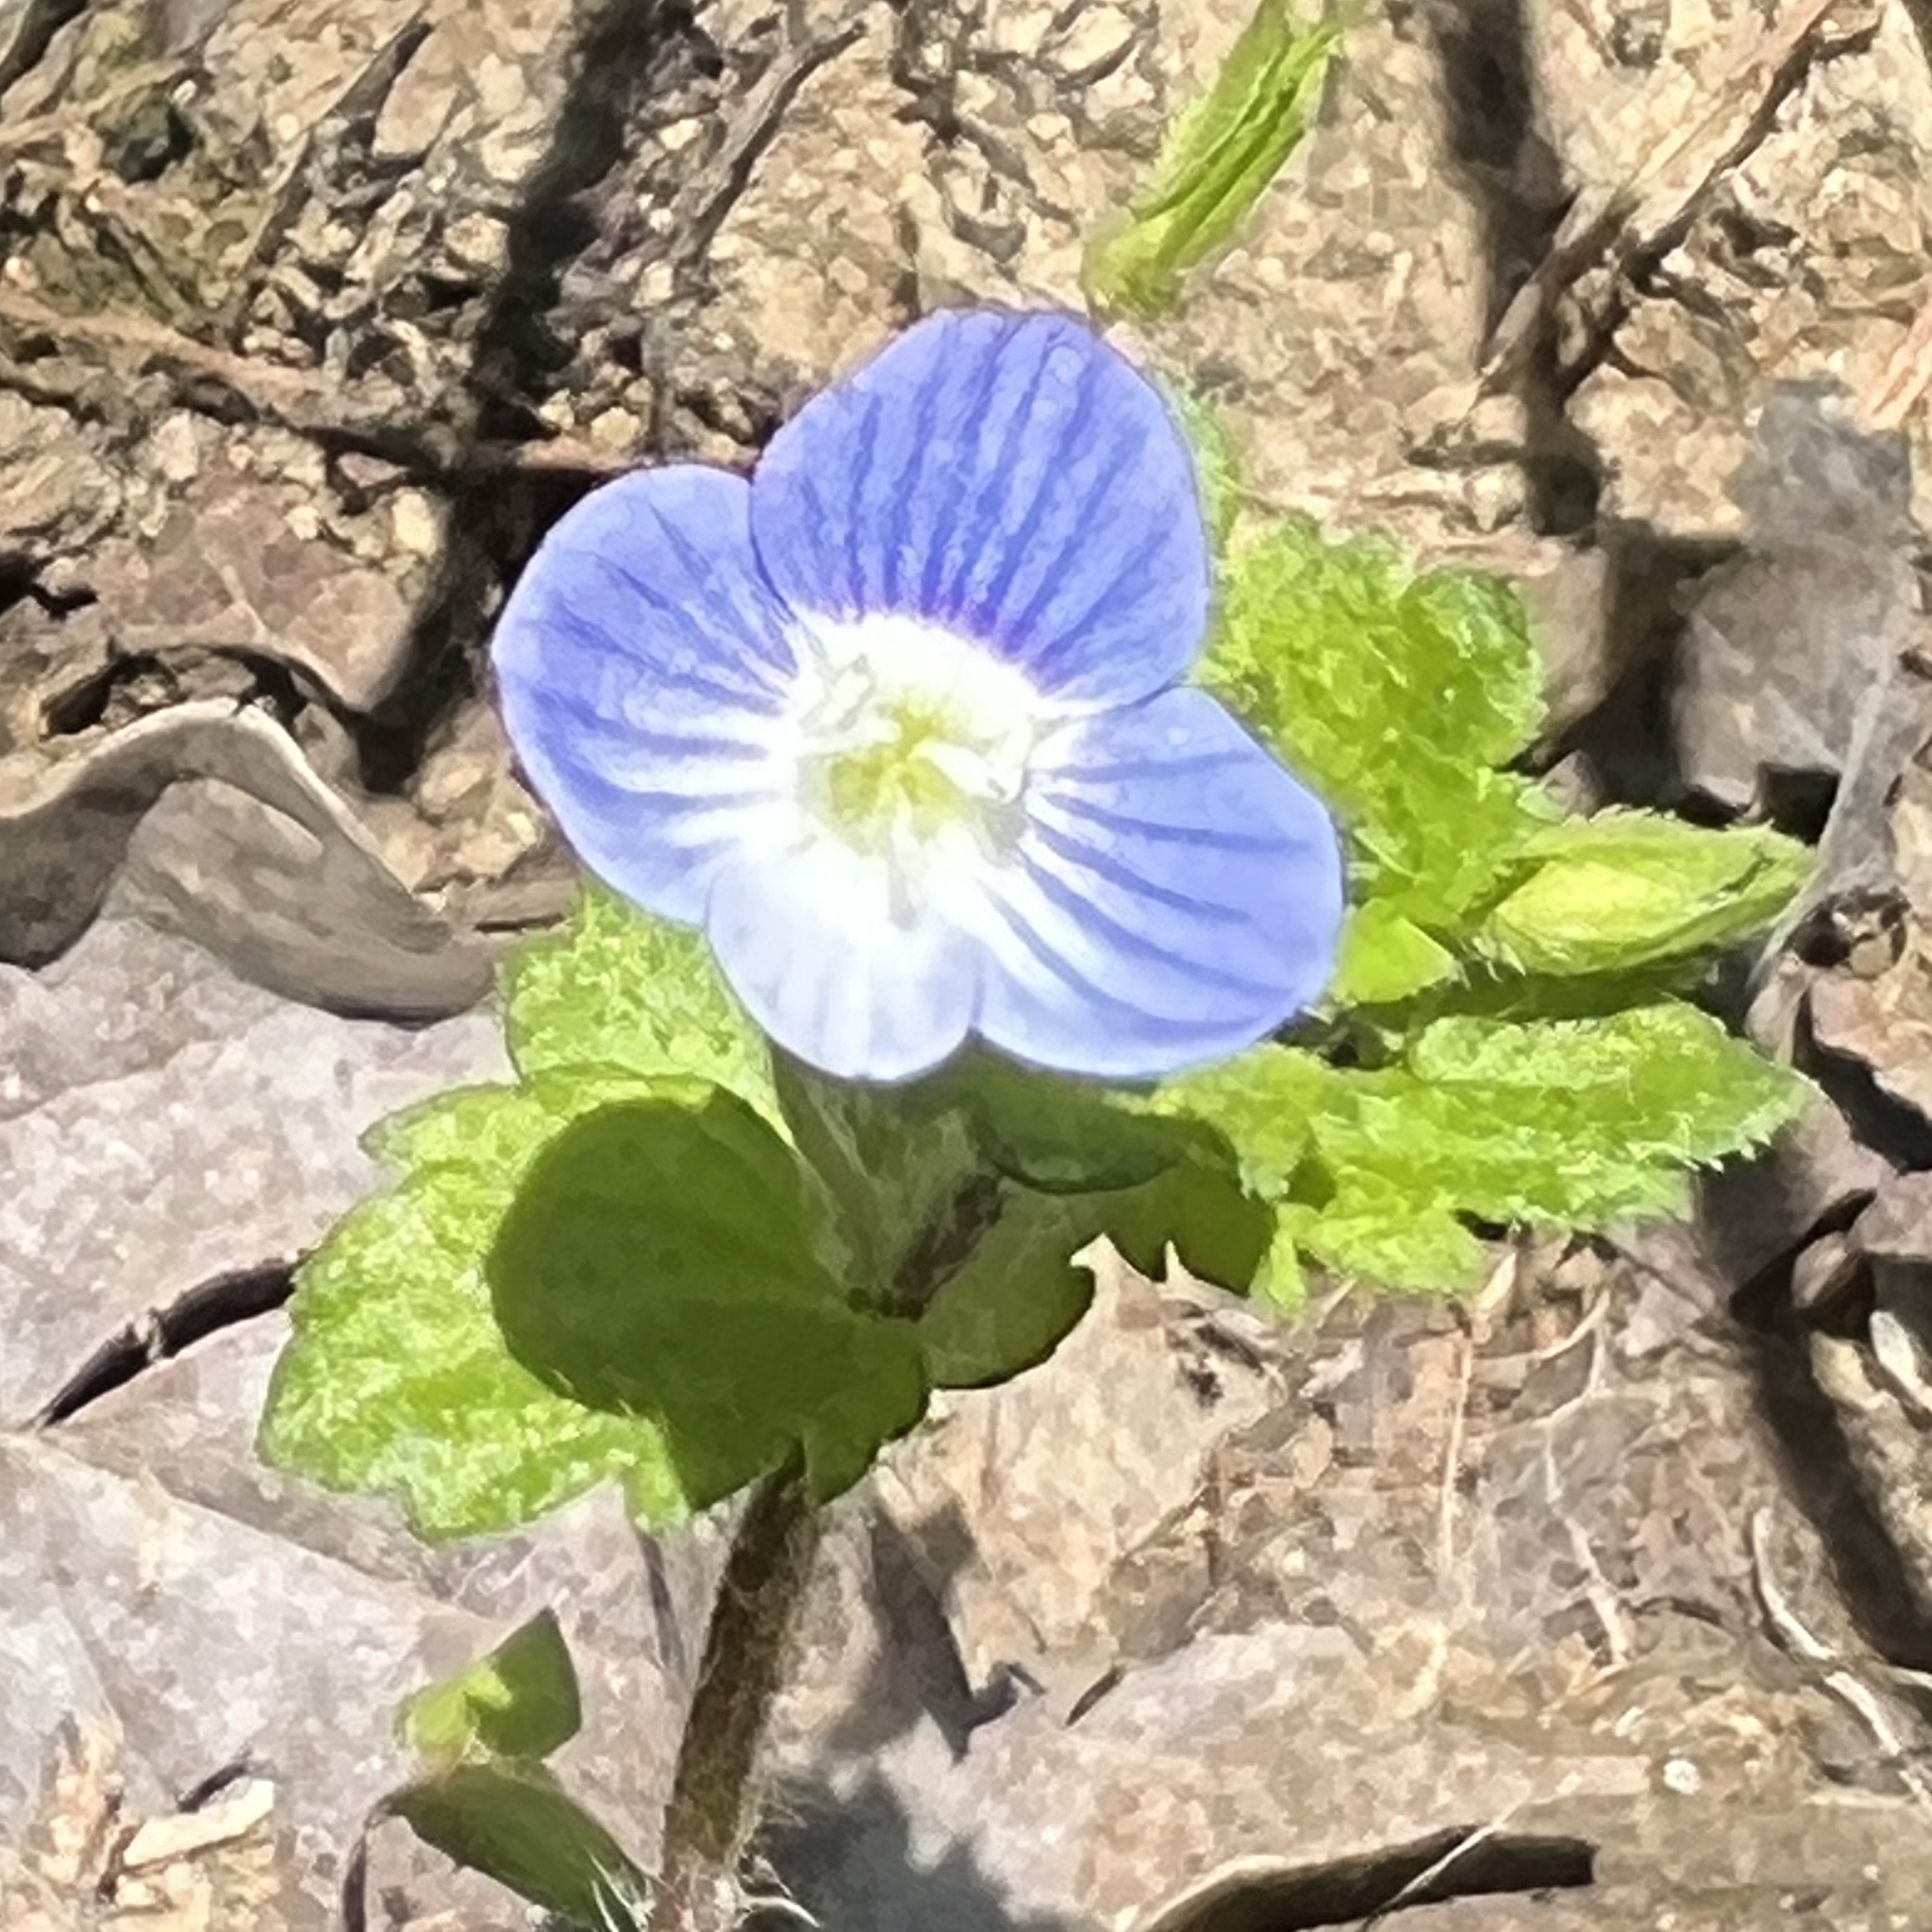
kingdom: Plantae
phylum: Tracheophyta
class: Magnoliopsida
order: Lamiales
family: Plantaginaceae
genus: Veronica
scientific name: Veronica persica
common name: Common field-speedwell
